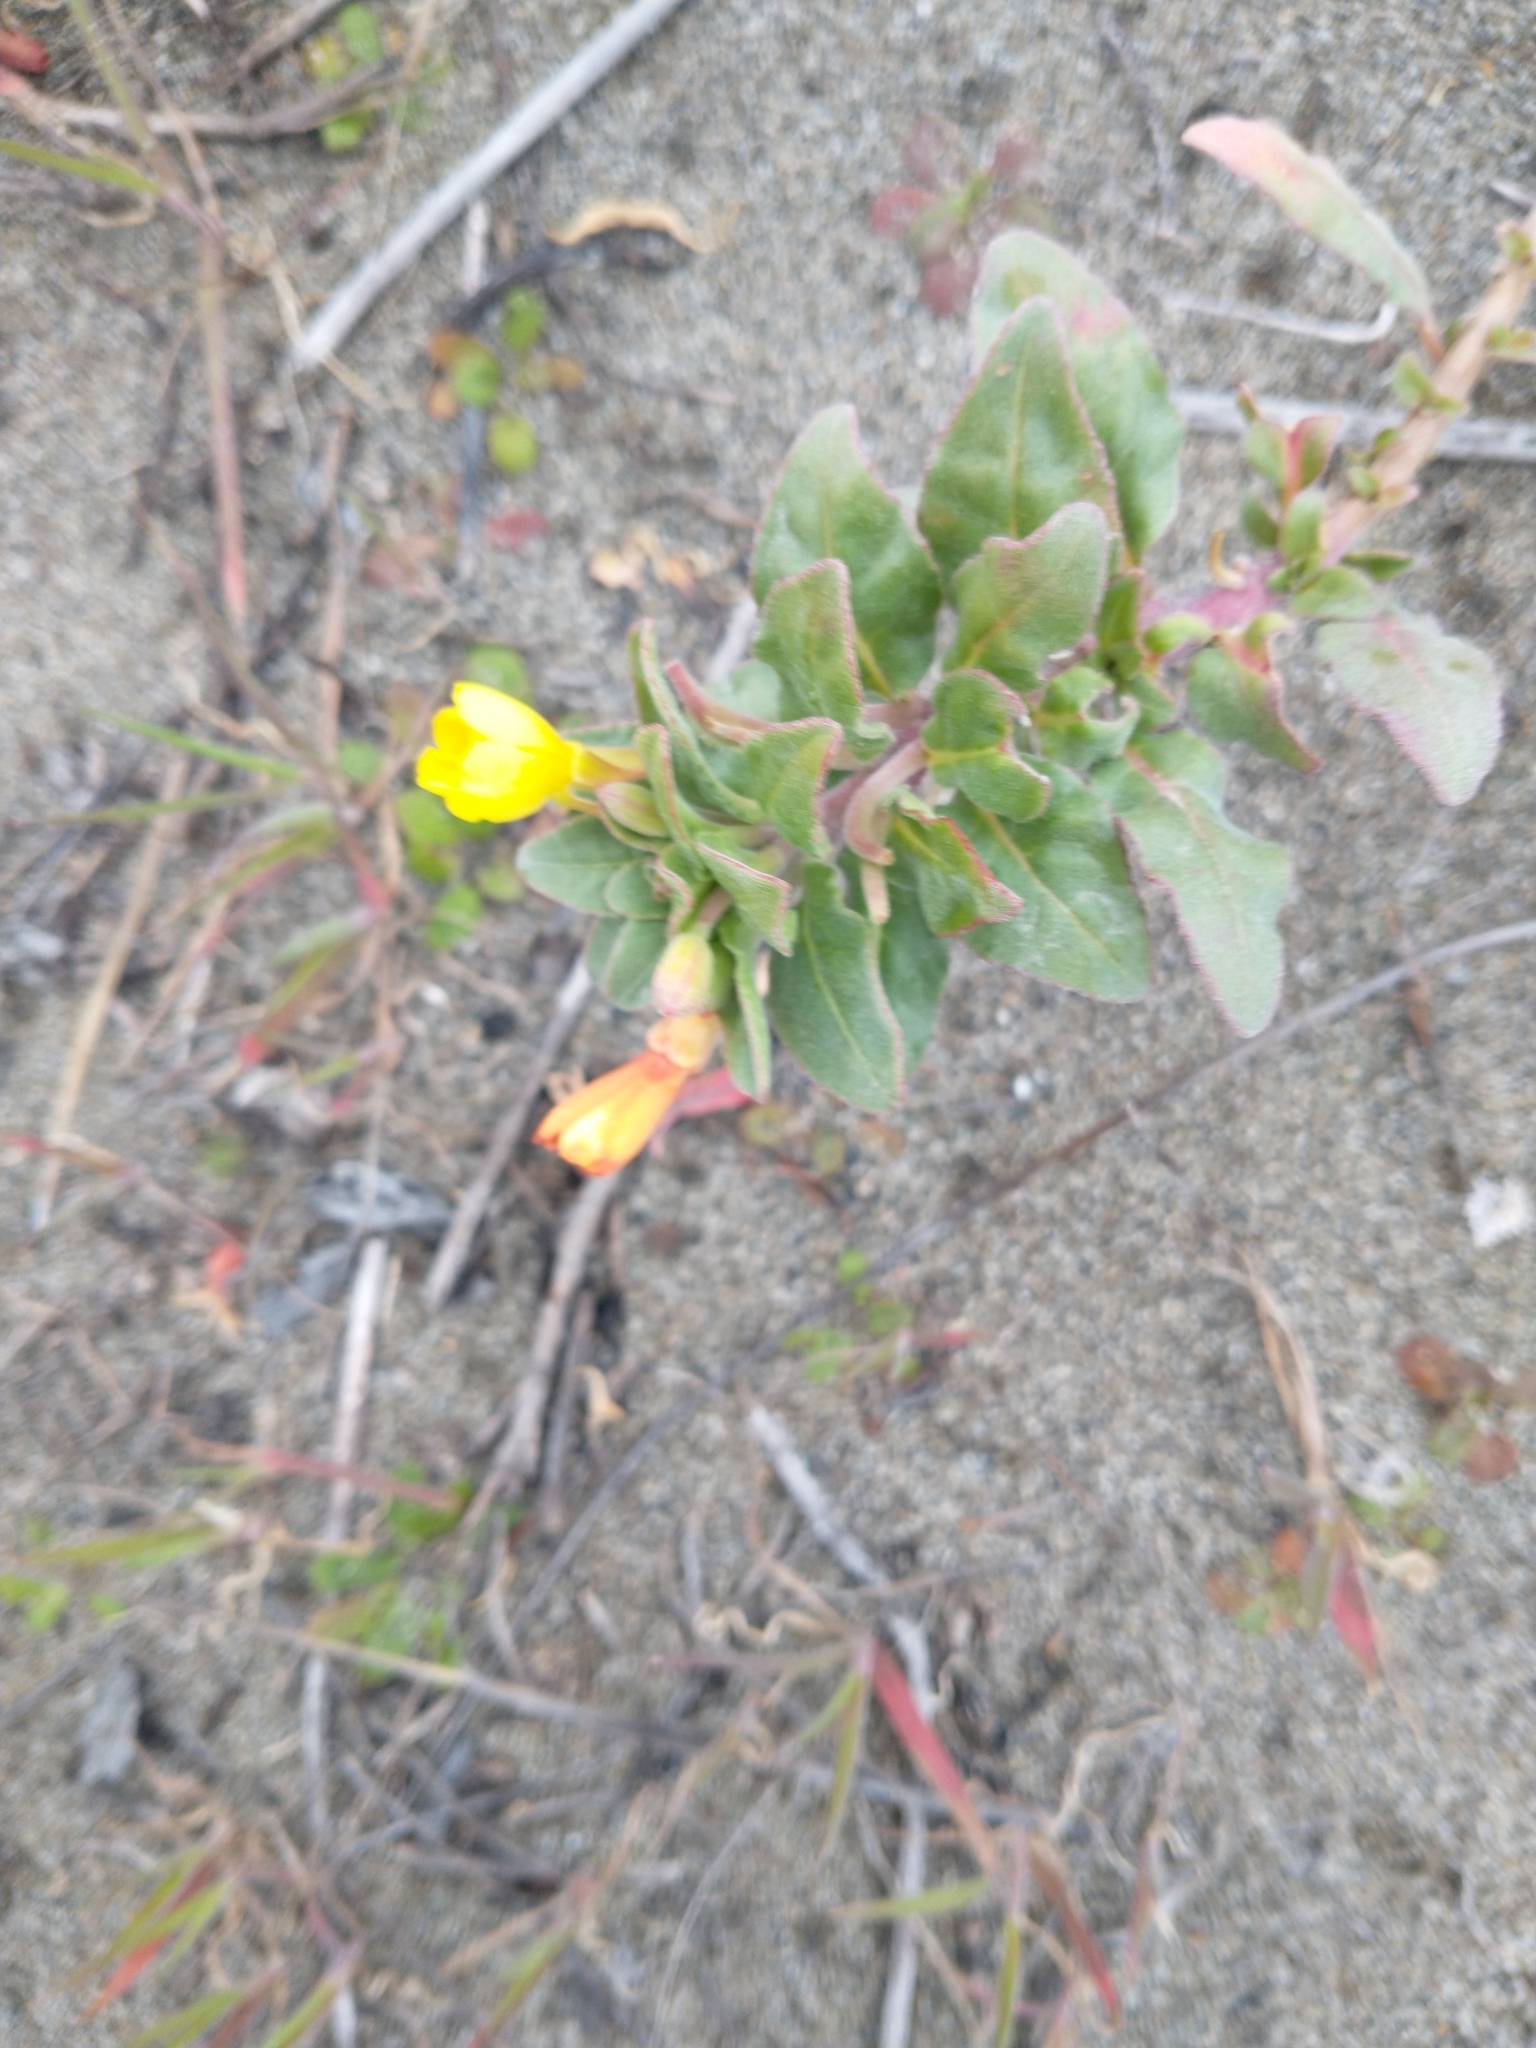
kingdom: Plantae
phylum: Tracheophyta
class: Magnoliopsida
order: Myrtales
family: Onagraceae
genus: Camissoniopsis
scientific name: Camissoniopsis cheiranthifolia
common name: Beach suncup
